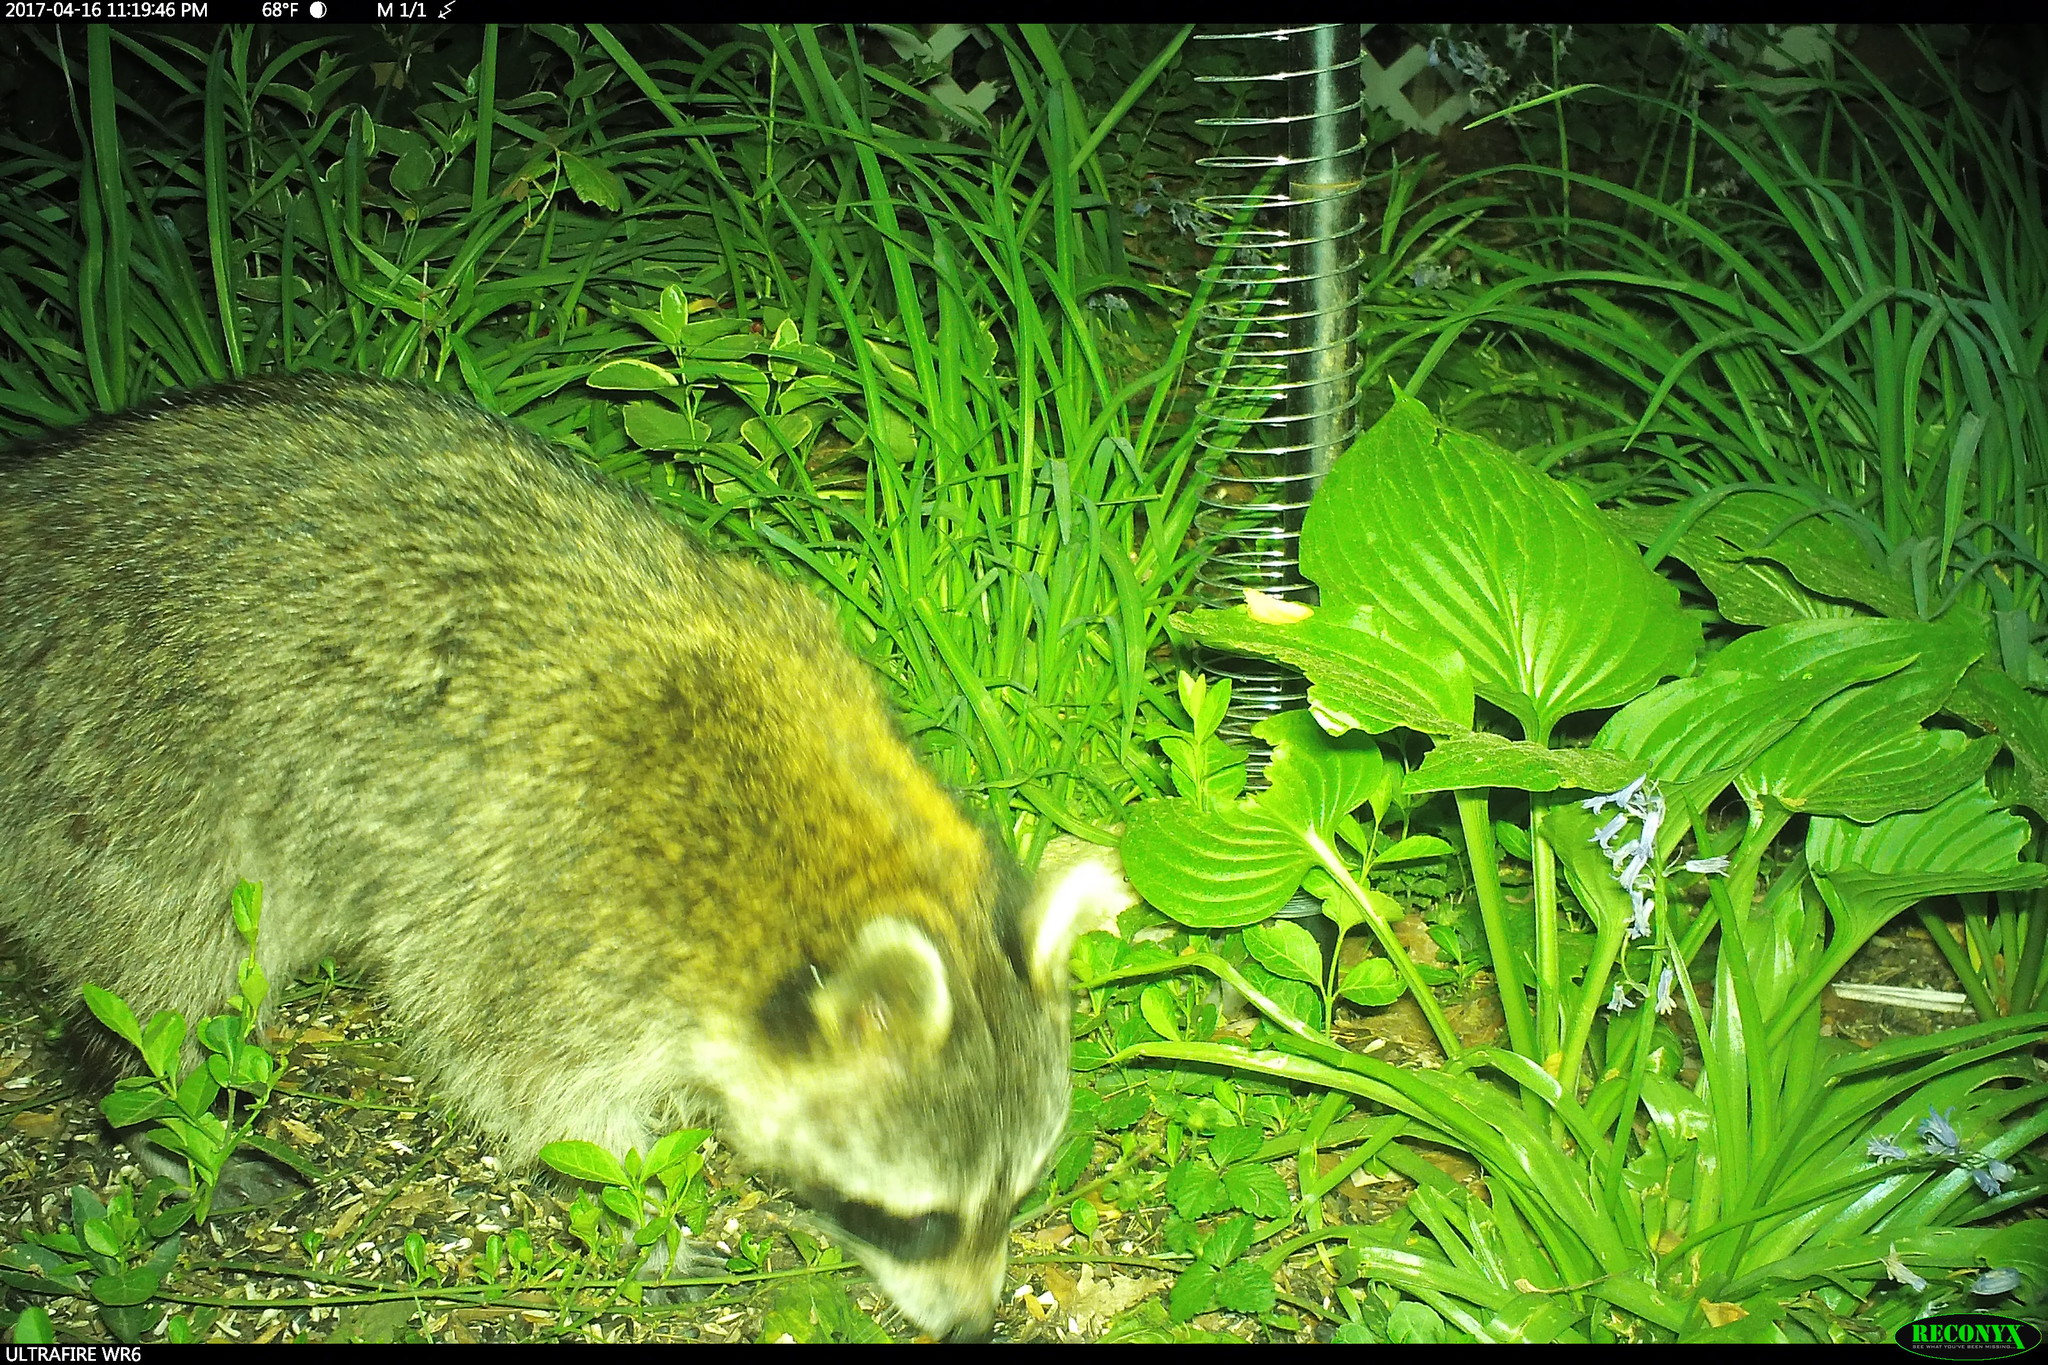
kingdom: Animalia
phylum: Chordata
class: Mammalia
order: Carnivora
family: Procyonidae
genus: Procyon
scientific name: Procyon lotor
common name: Raccoon
